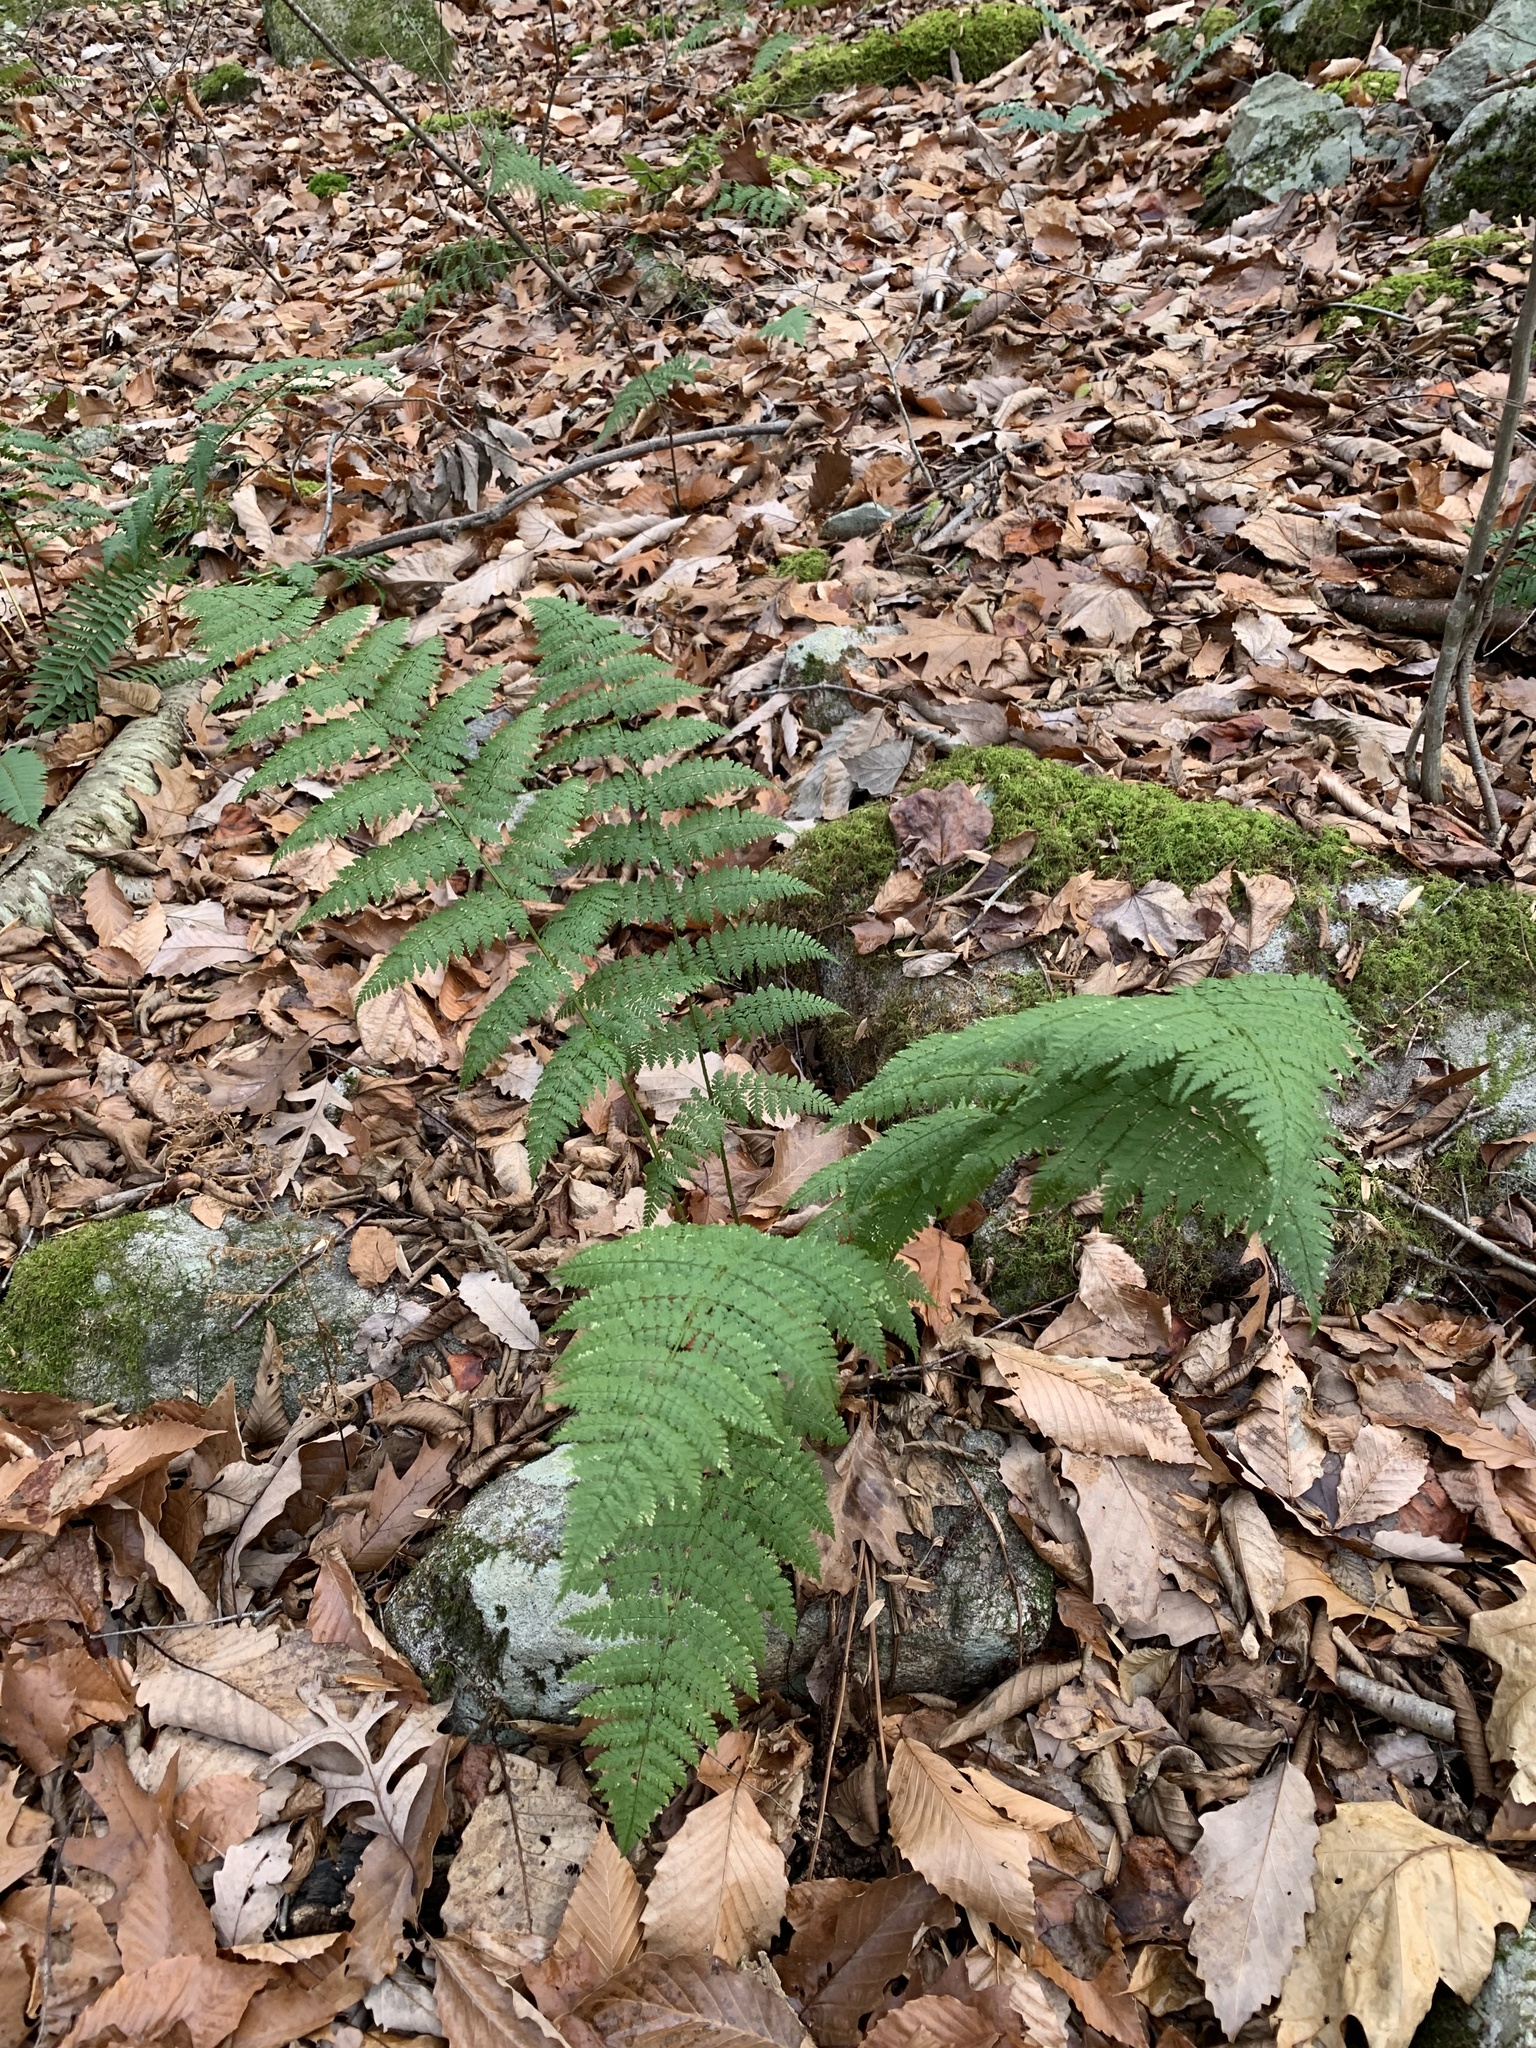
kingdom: Plantae
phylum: Tracheophyta
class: Polypodiopsida
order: Polypodiales
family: Dryopteridaceae
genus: Dryopteris
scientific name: Dryopteris intermedia
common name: Evergreen wood fern
